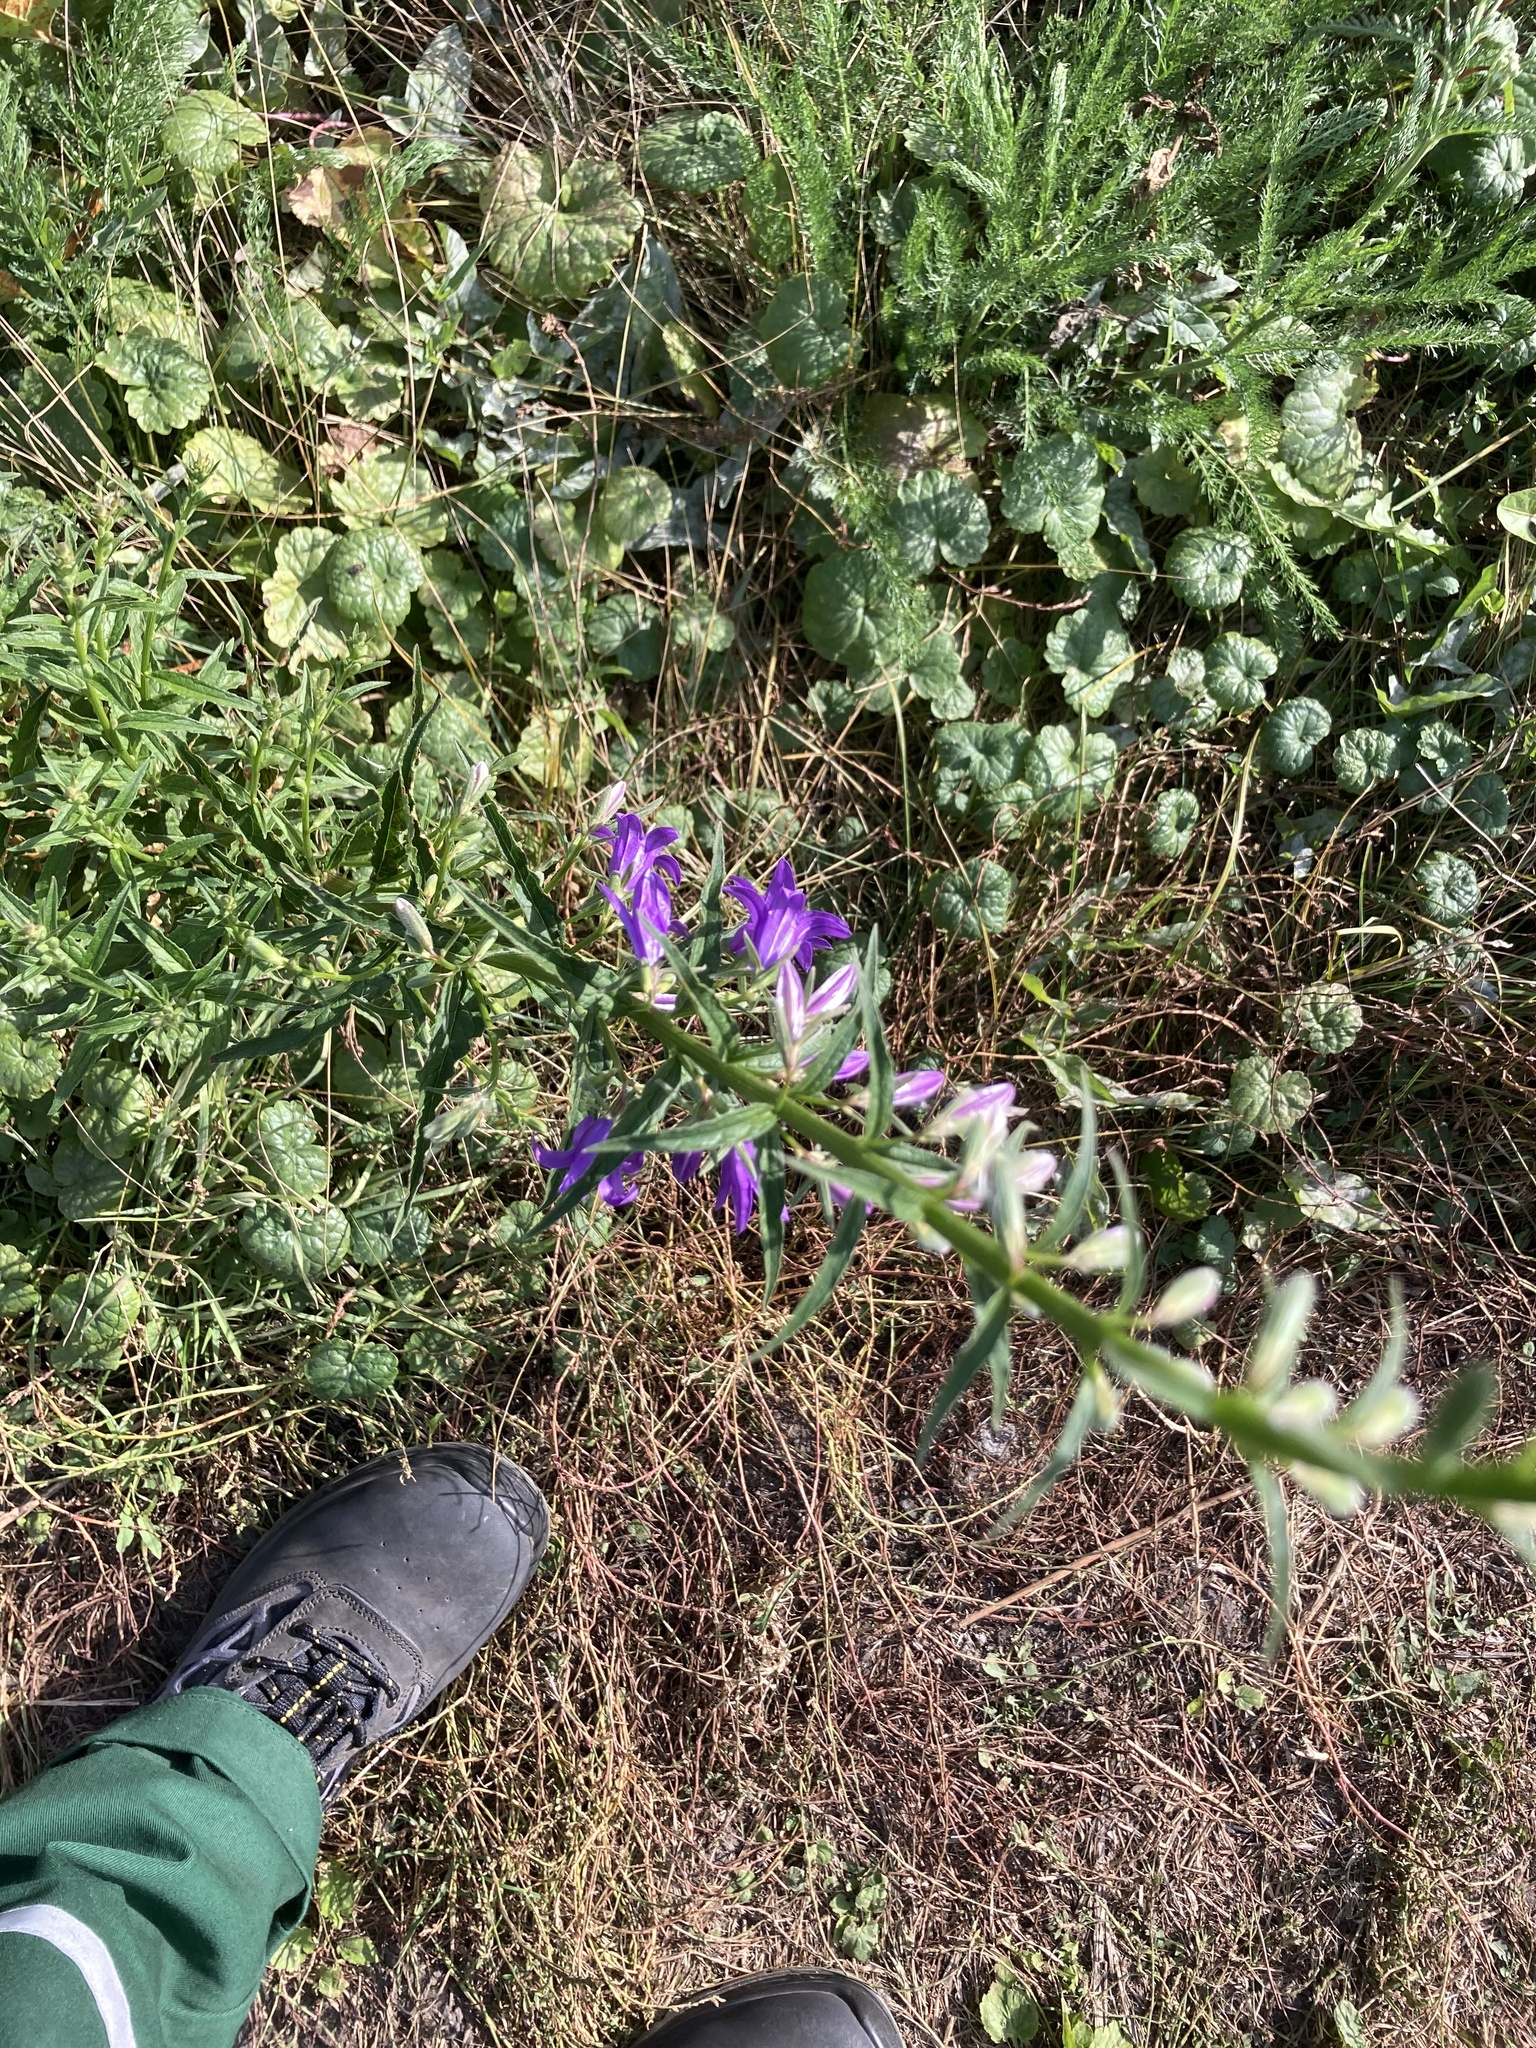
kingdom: Plantae
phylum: Tracheophyta
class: Magnoliopsida
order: Asterales
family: Campanulaceae
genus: Campanula
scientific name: Campanula rapunculoides
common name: Creeping bellflower
